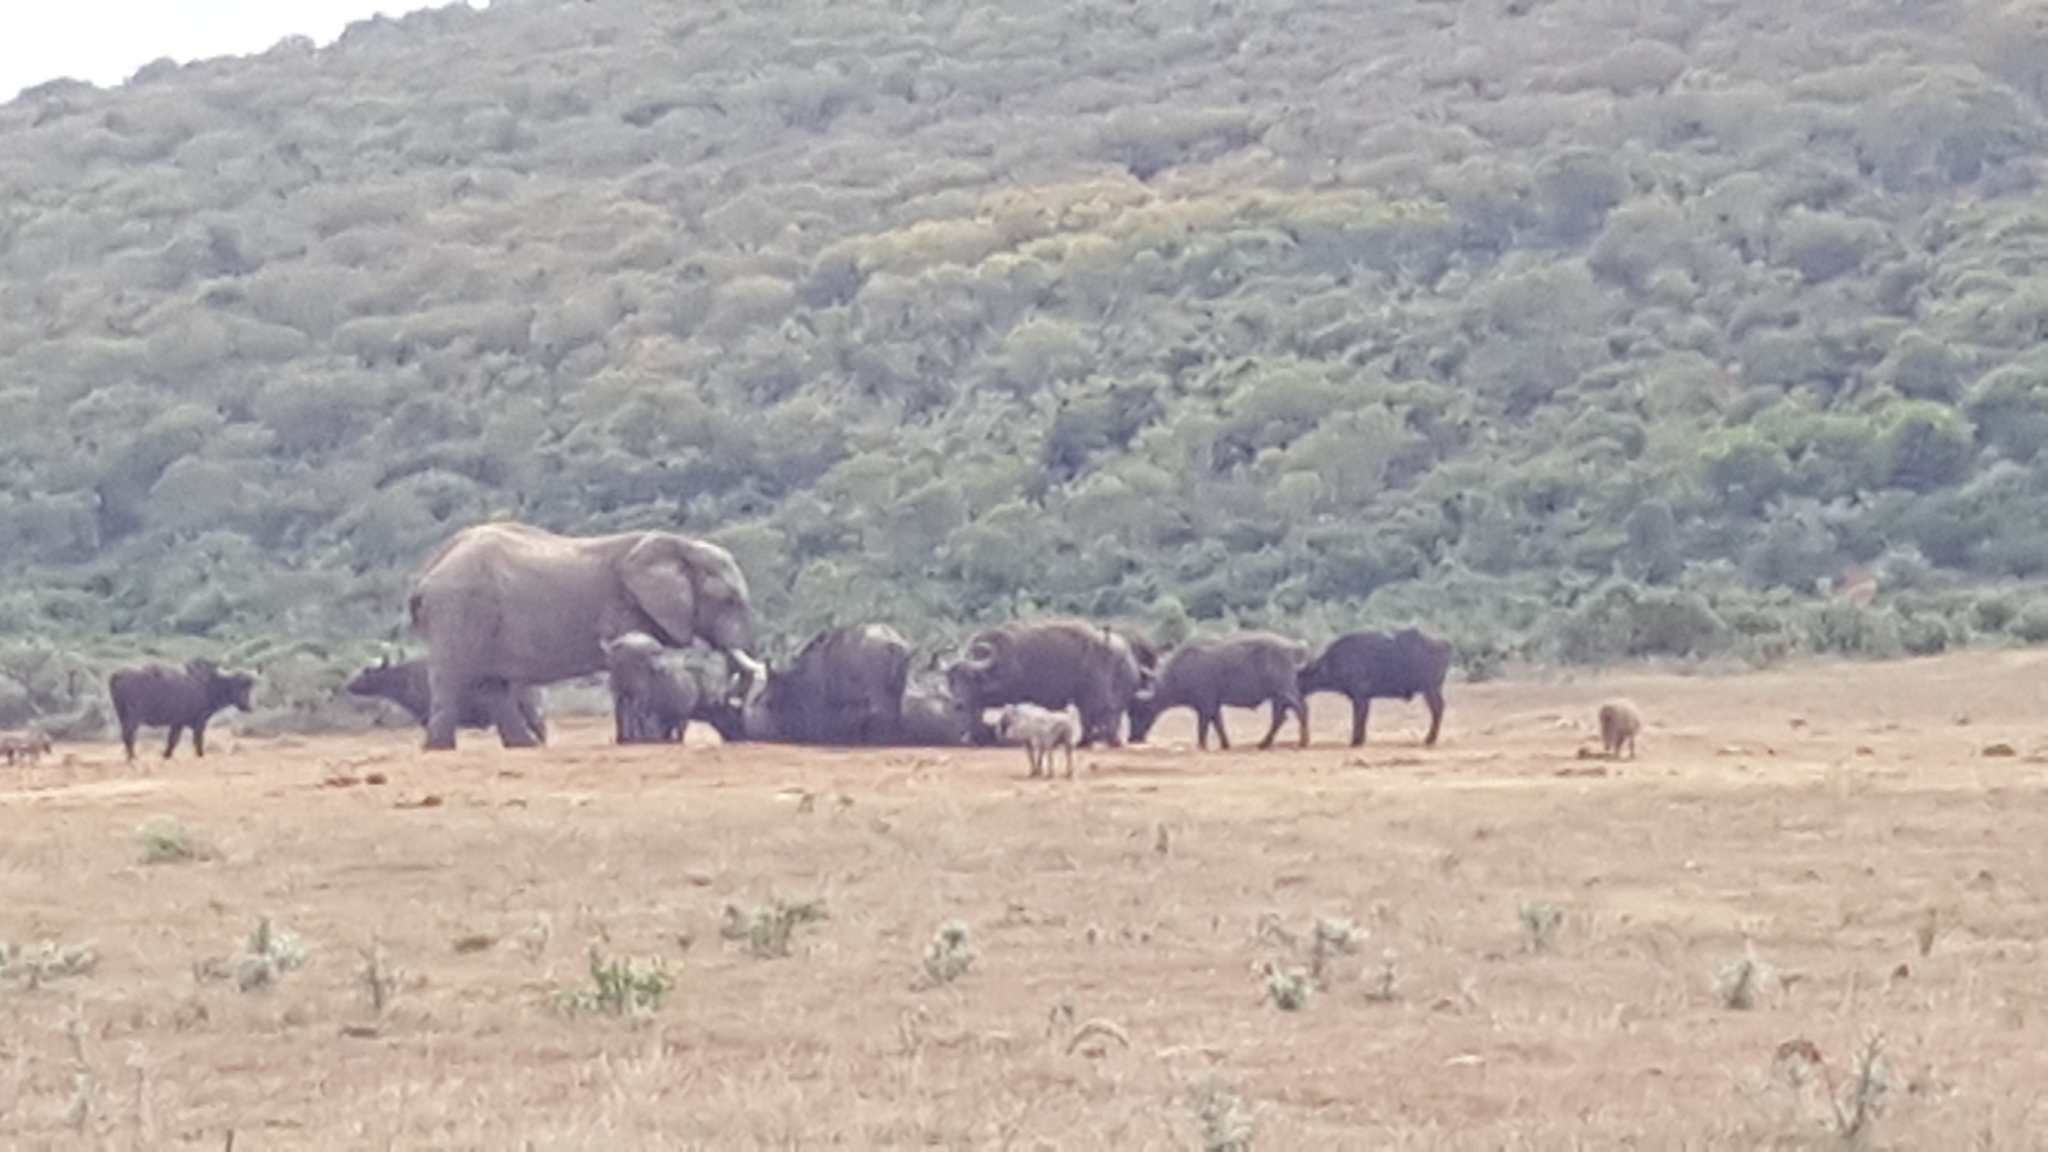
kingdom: Animalia
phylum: Chordata
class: Mammalia
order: Proboscidea
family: Elephantidae
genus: Loxodonta
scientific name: Loxodonta africana
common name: African elephant
